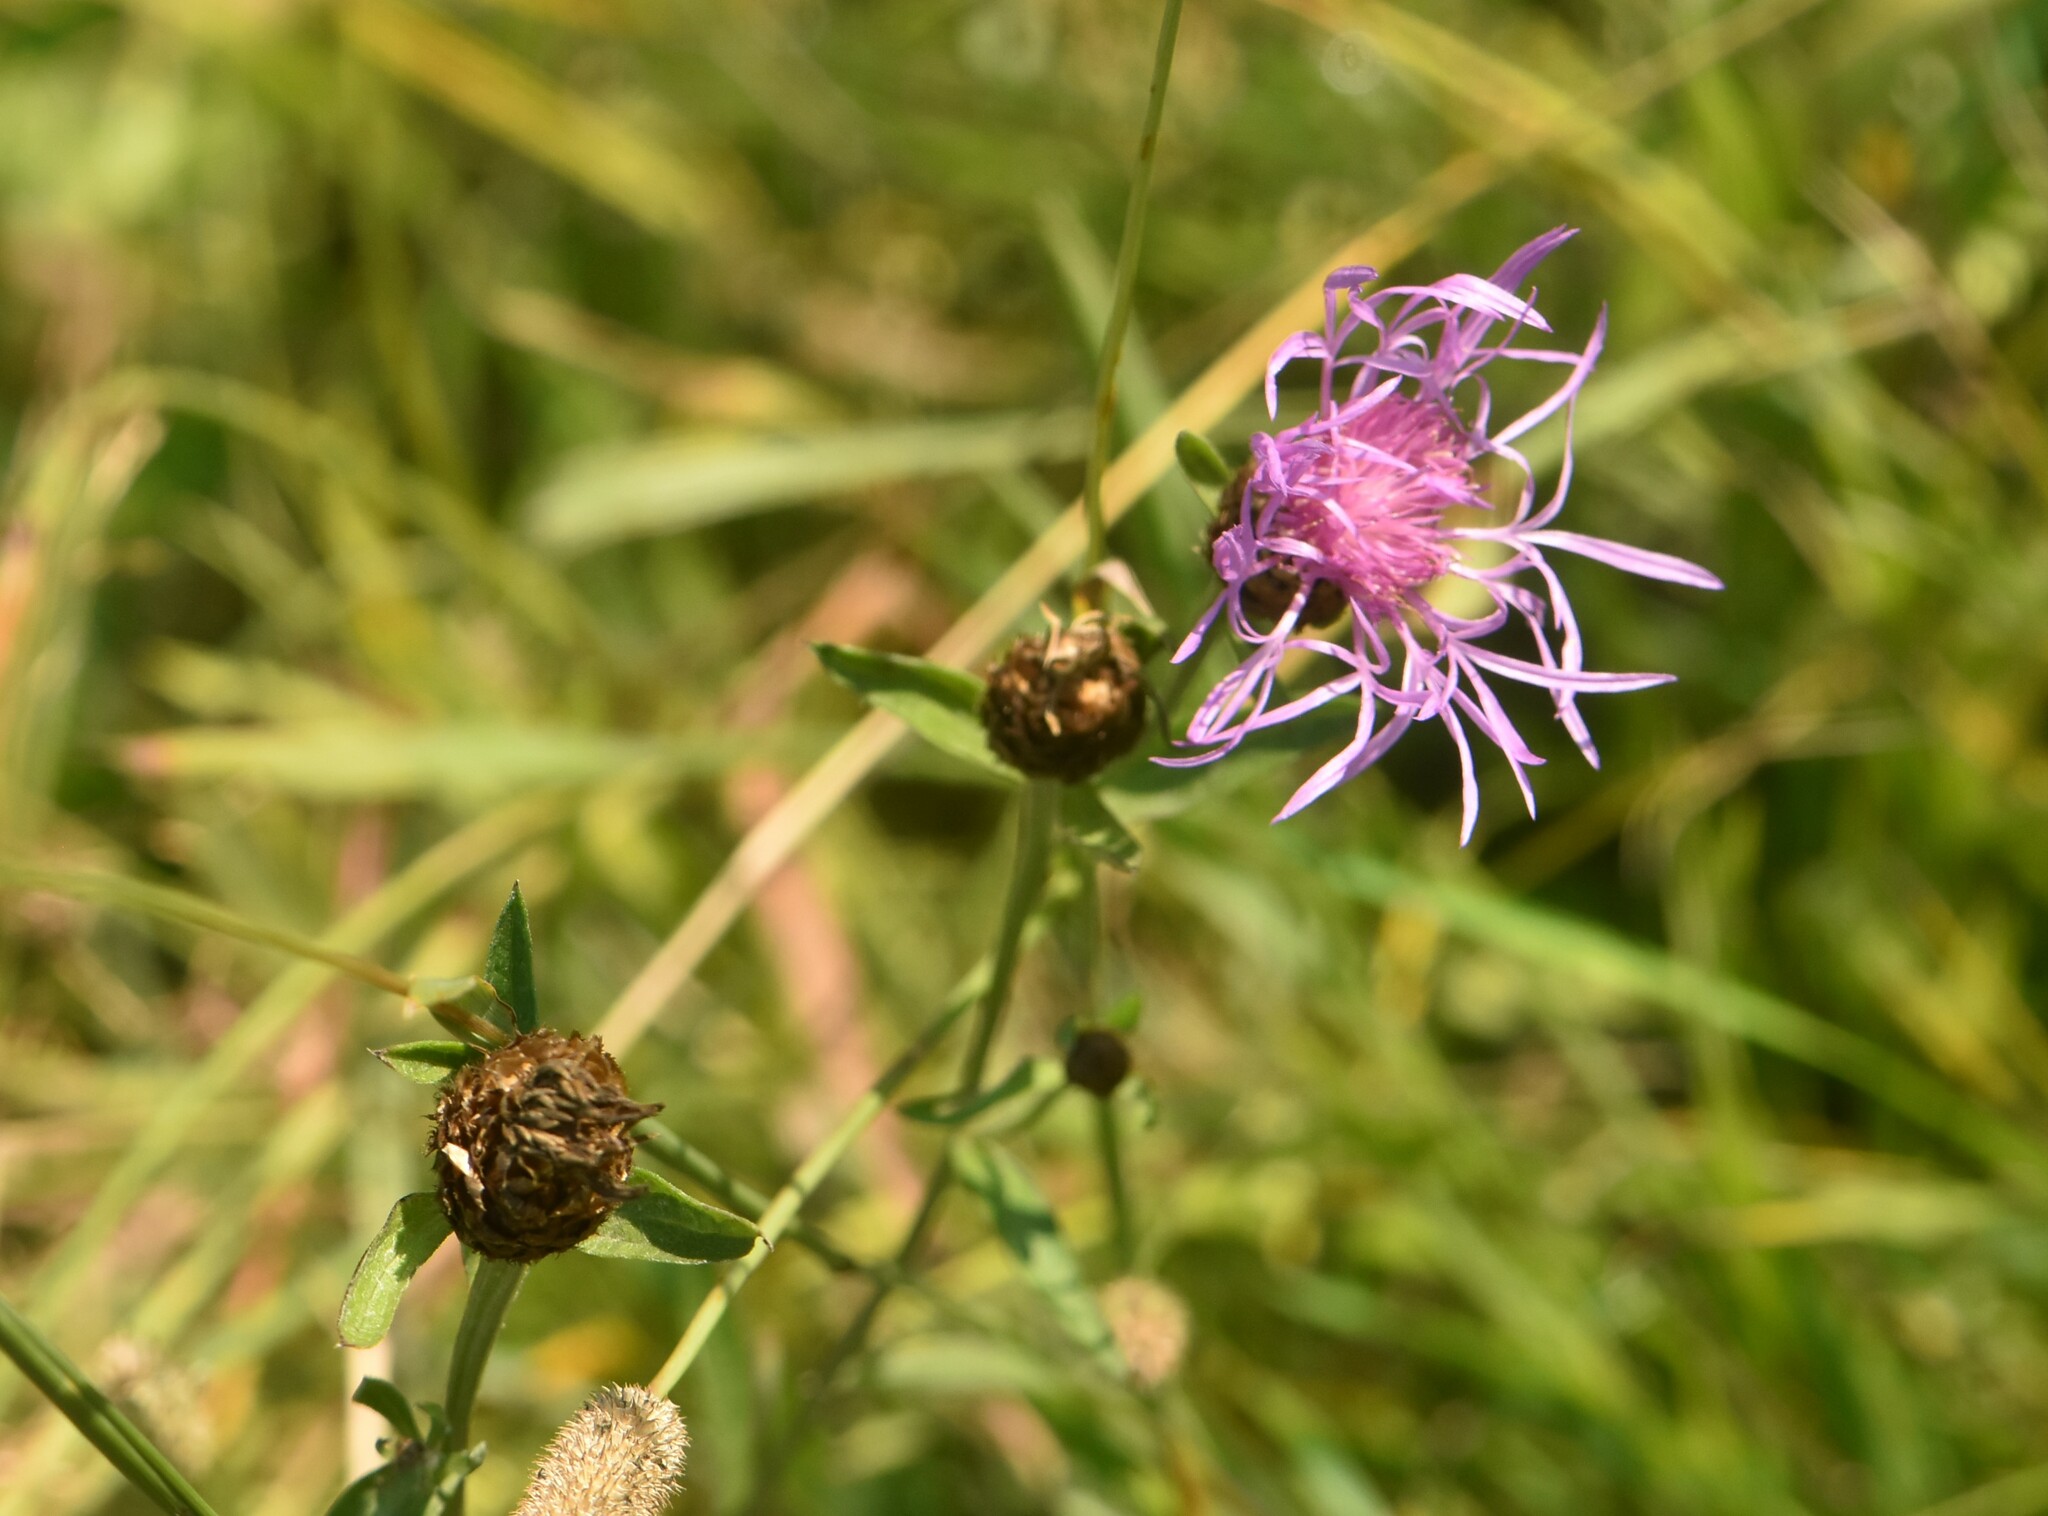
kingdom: Plantae
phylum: Tracheophyta
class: Magnoliopsida
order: Asterales
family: Asteraceae
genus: Centaurea
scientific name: Centaurea jacea
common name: Brown knapweed
